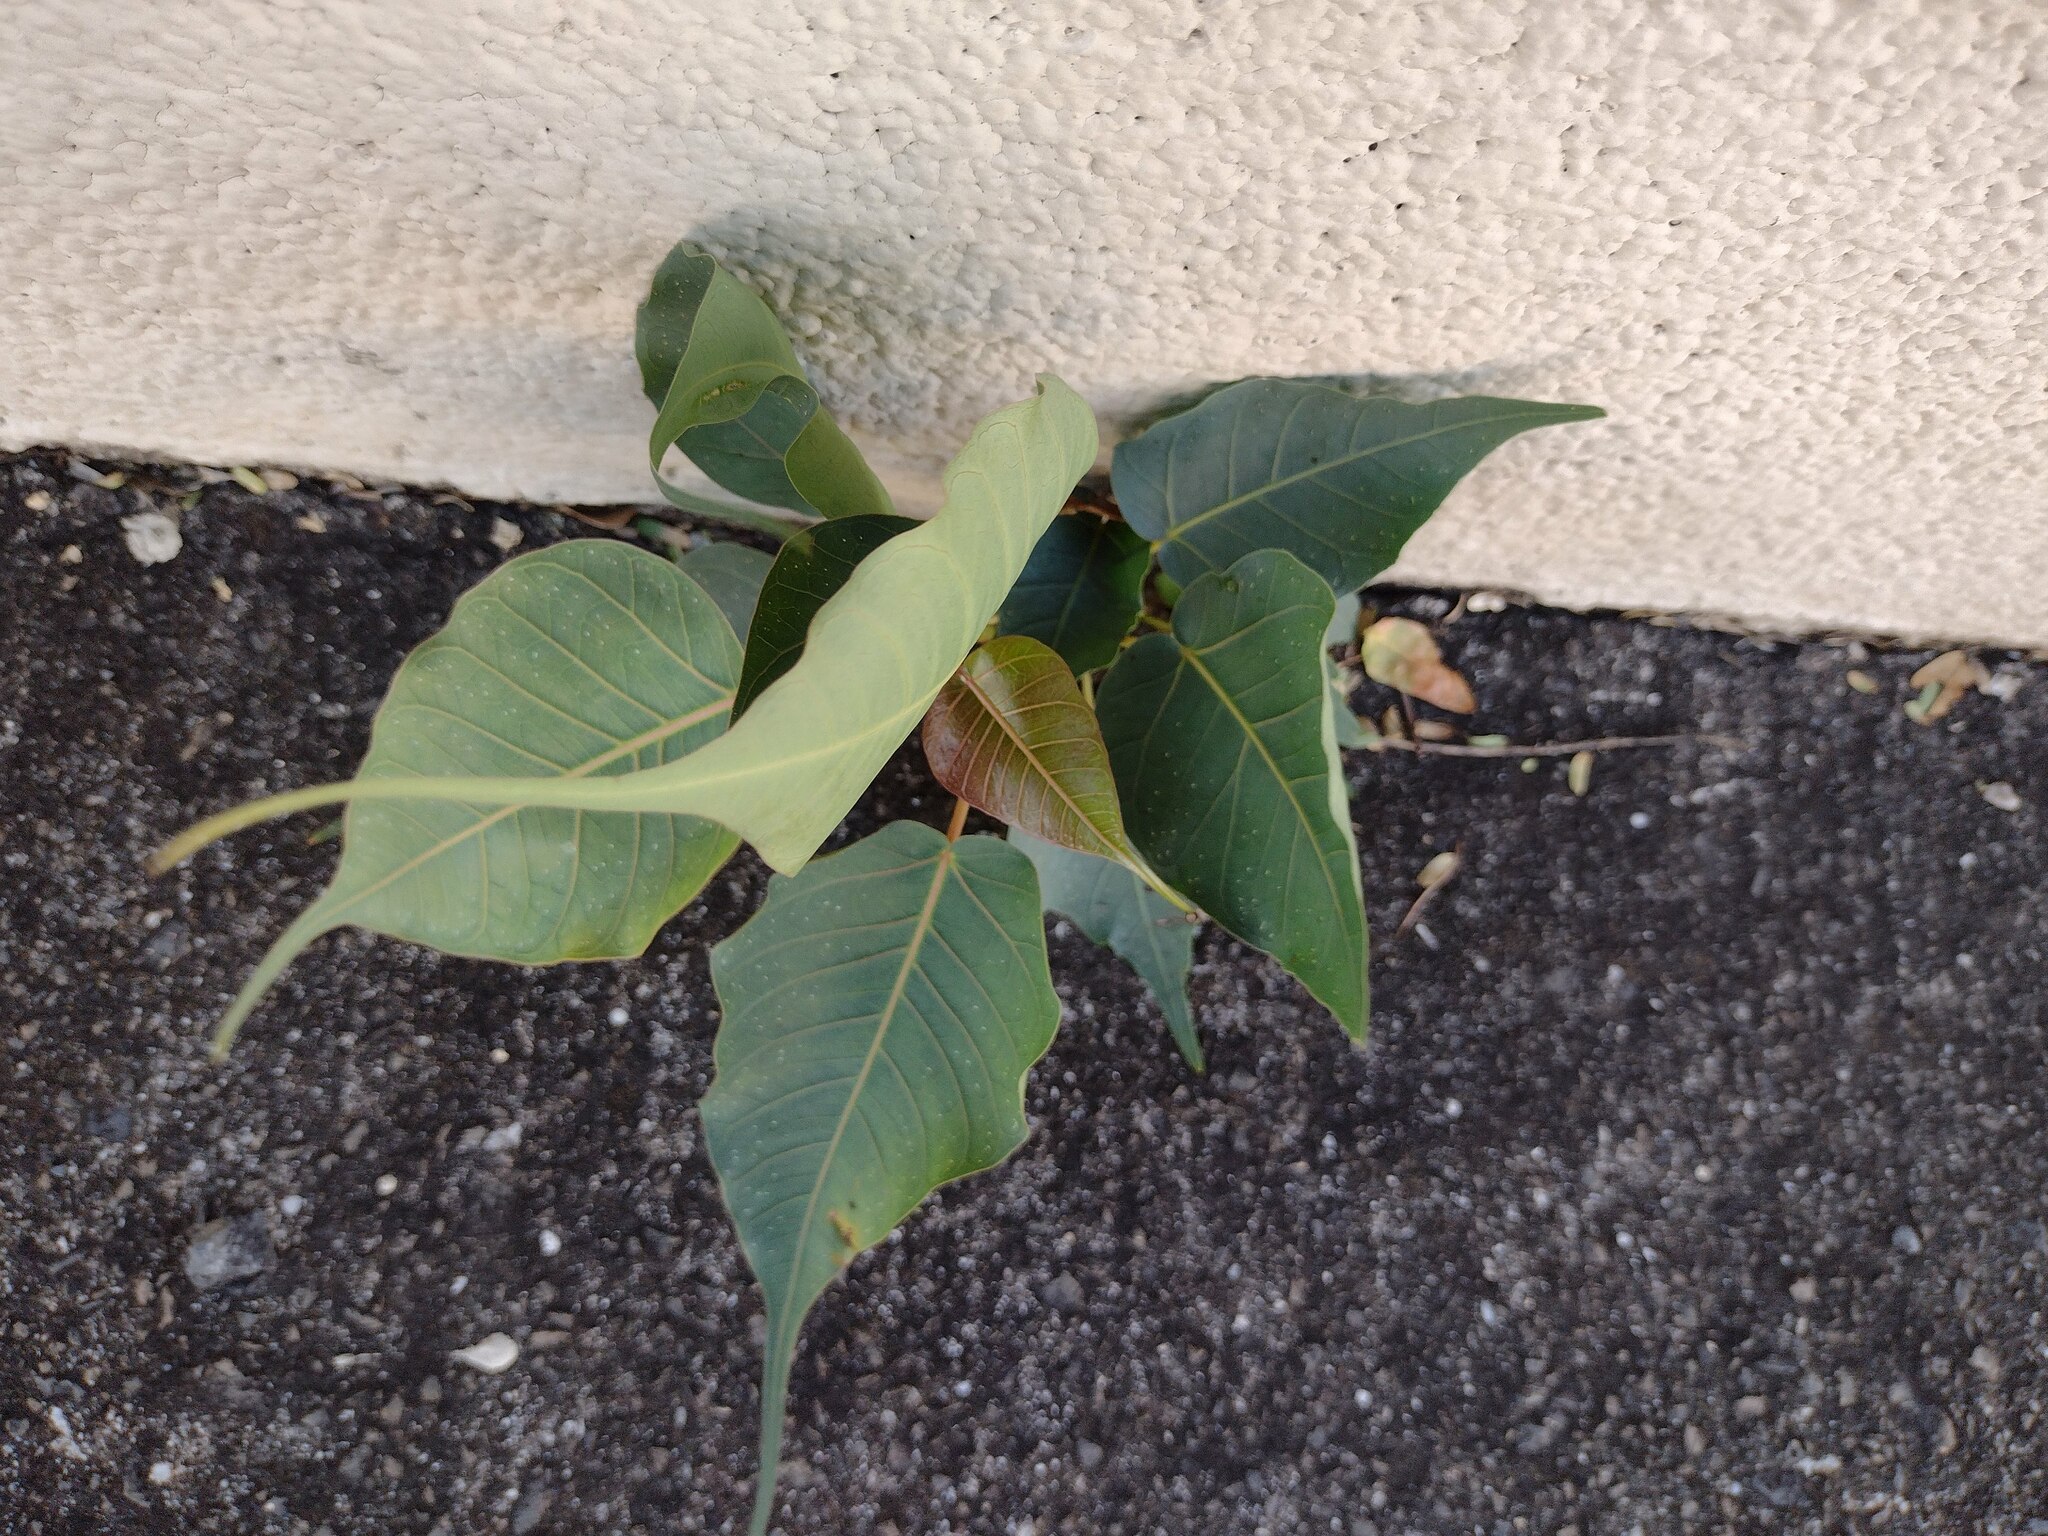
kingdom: Plantae
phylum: Tracheophyta
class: Magnoliopsida
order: Rosales
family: Moraceae
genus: Ficus
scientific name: Ficus religiosa
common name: Bodhi tree
